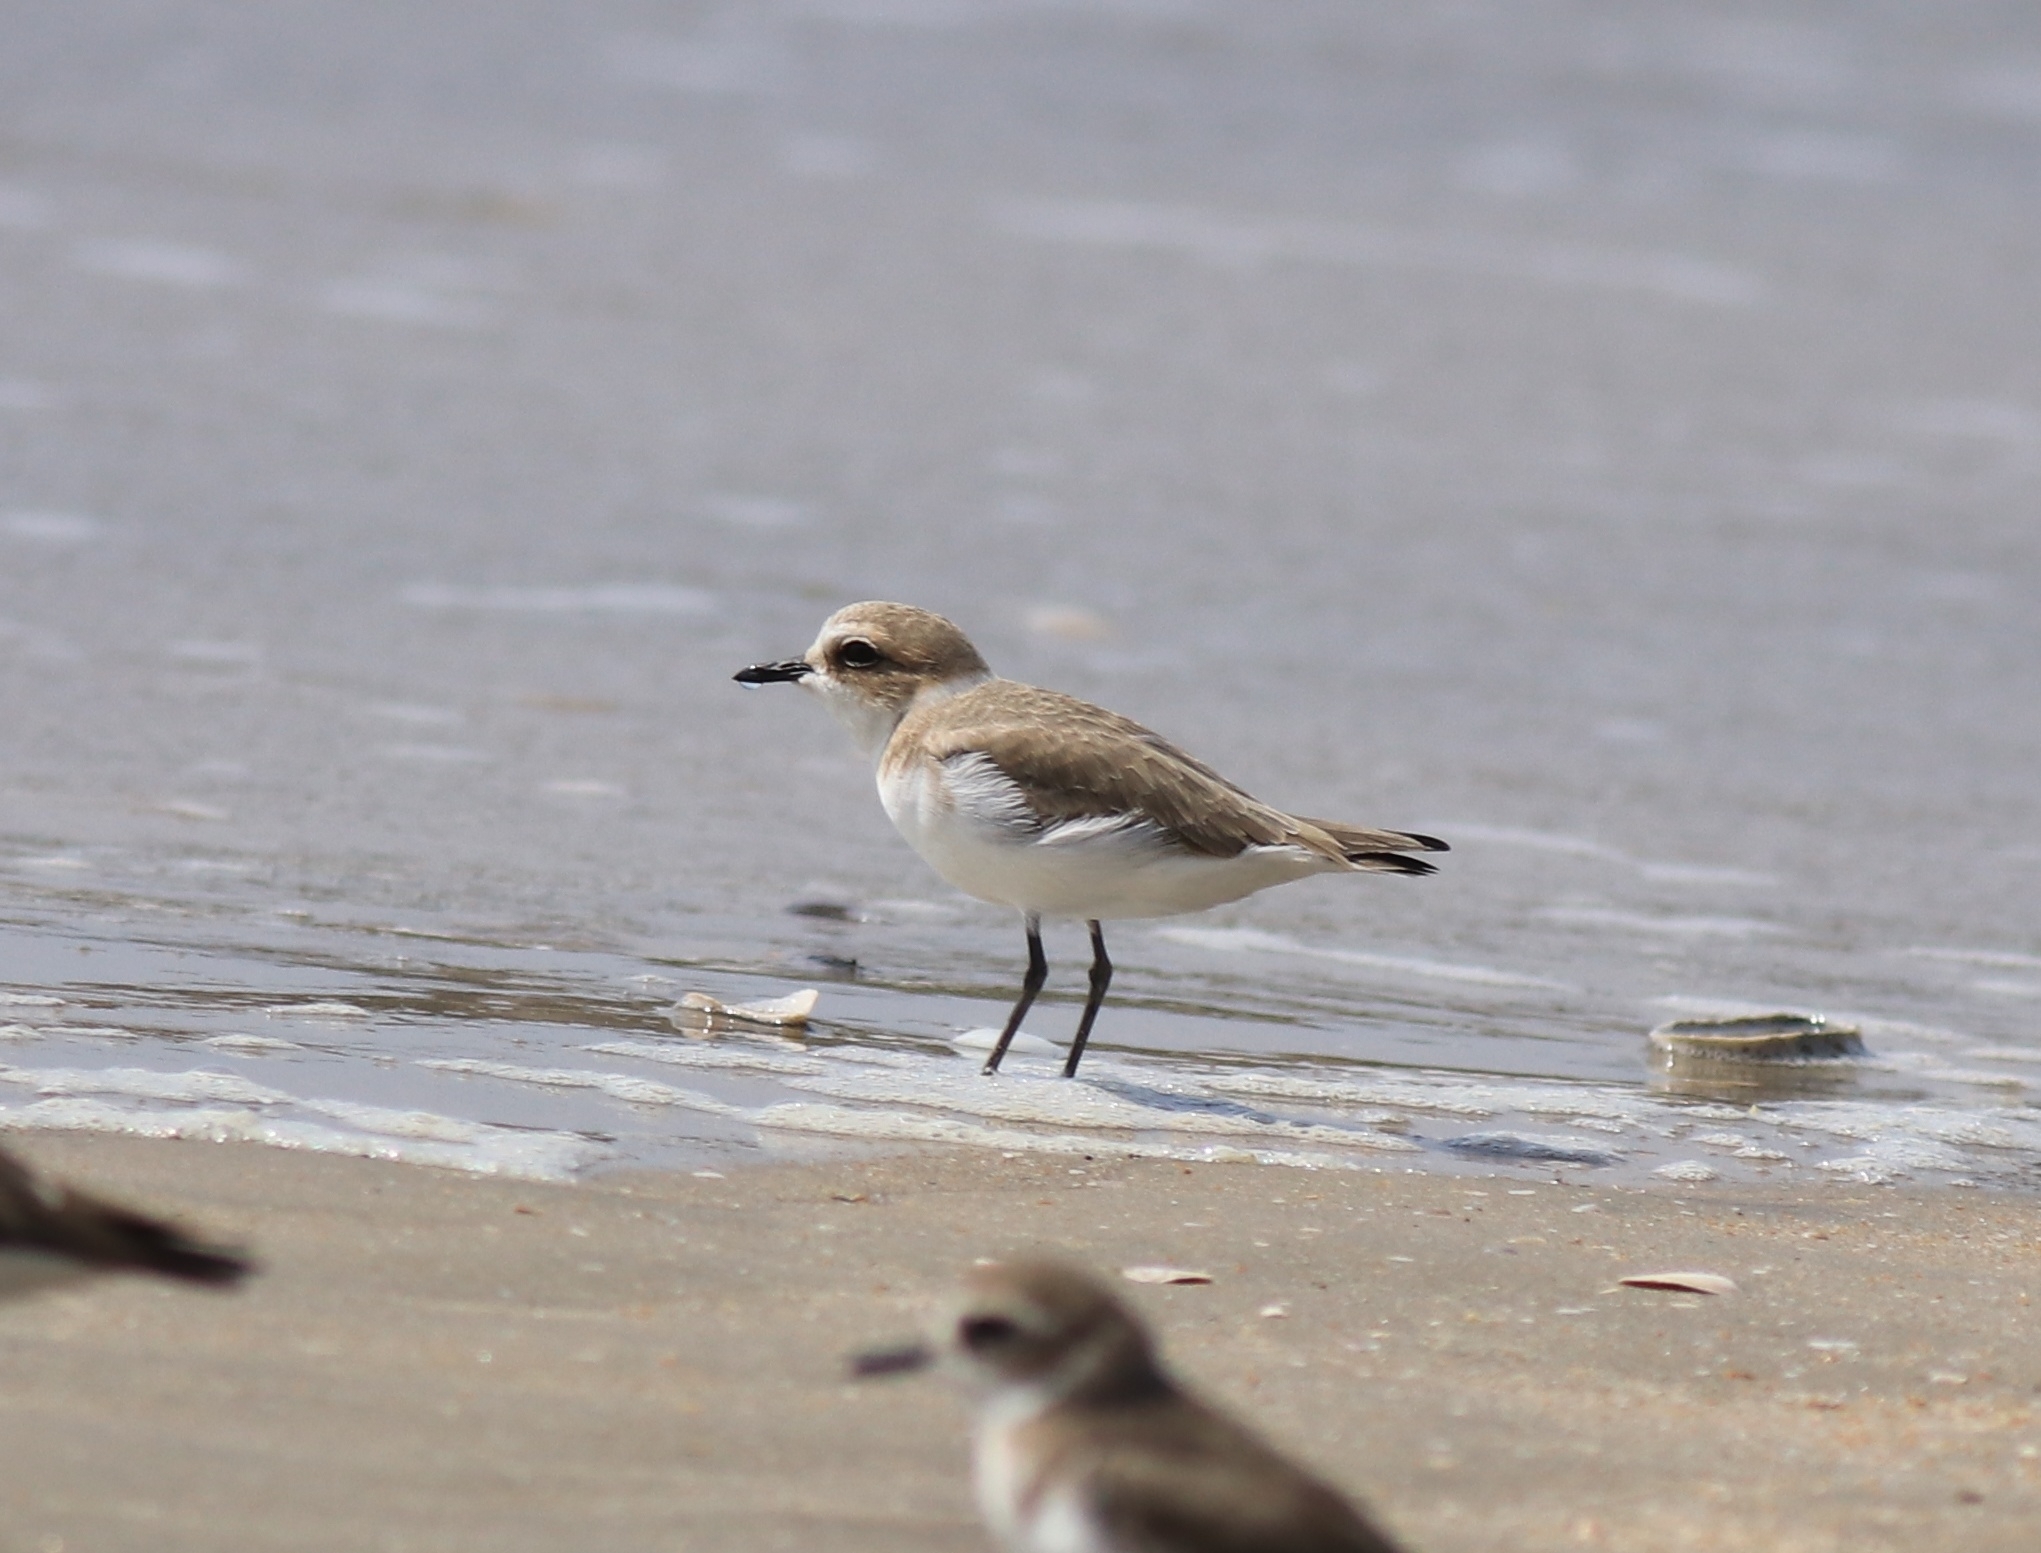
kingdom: Animalia
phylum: Chordata
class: Aves
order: Charadriiformes
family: Charadriidae
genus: Anarhynchus
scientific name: Anarhynchus
